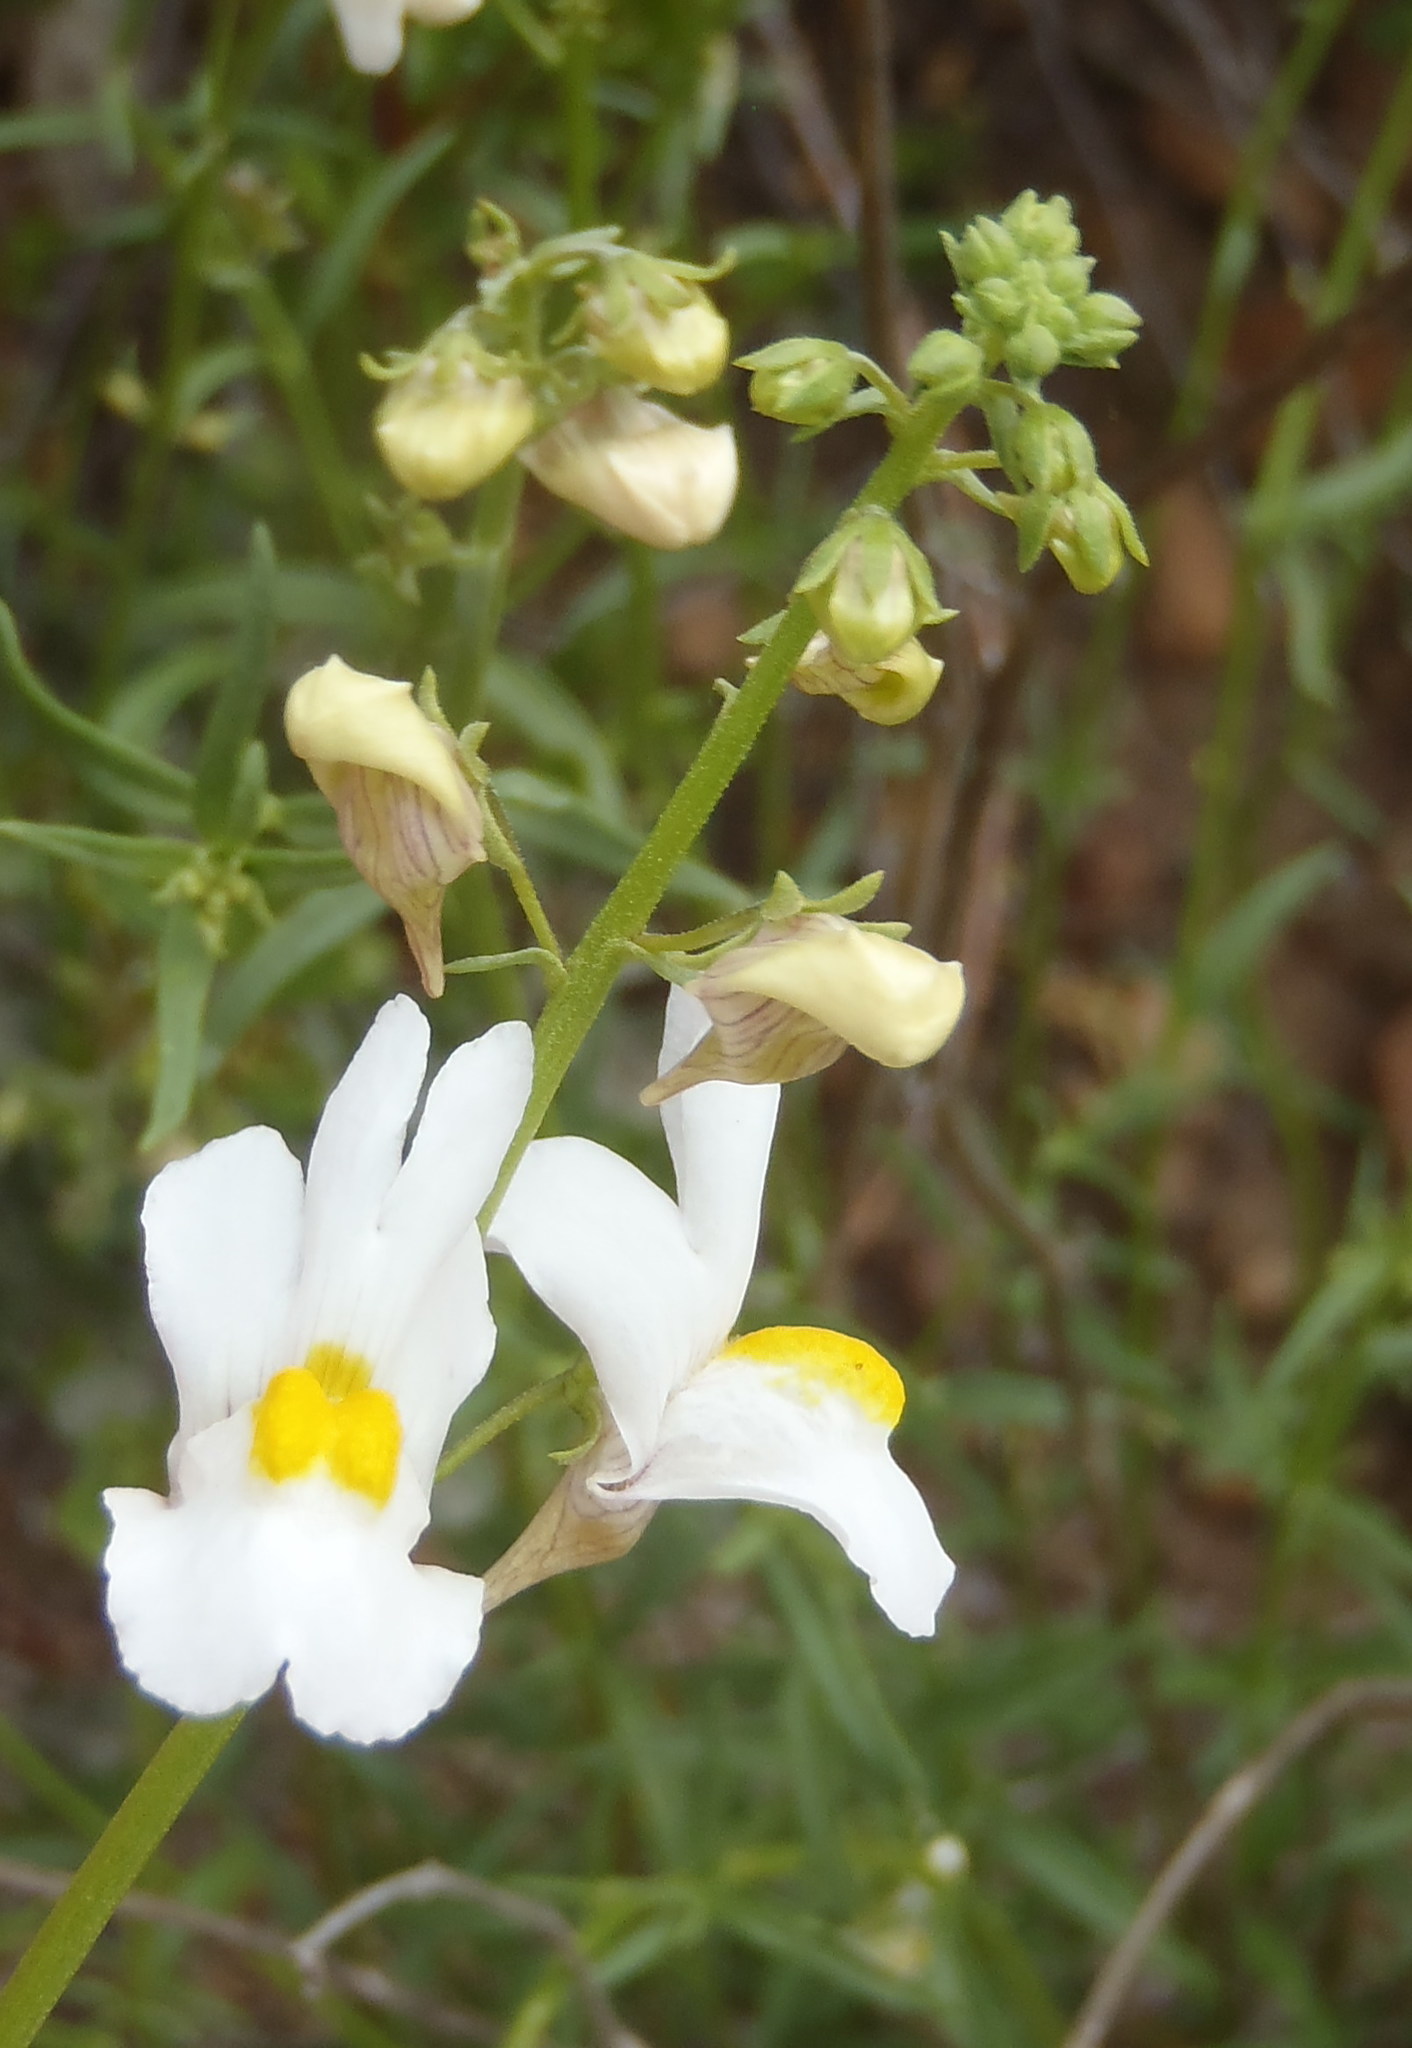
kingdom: Plantae
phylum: Tracheophyta
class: Magnoliopsida
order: Lamiales
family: Scrophulariaceae
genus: Nemesia
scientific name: Nemesia fruticans
